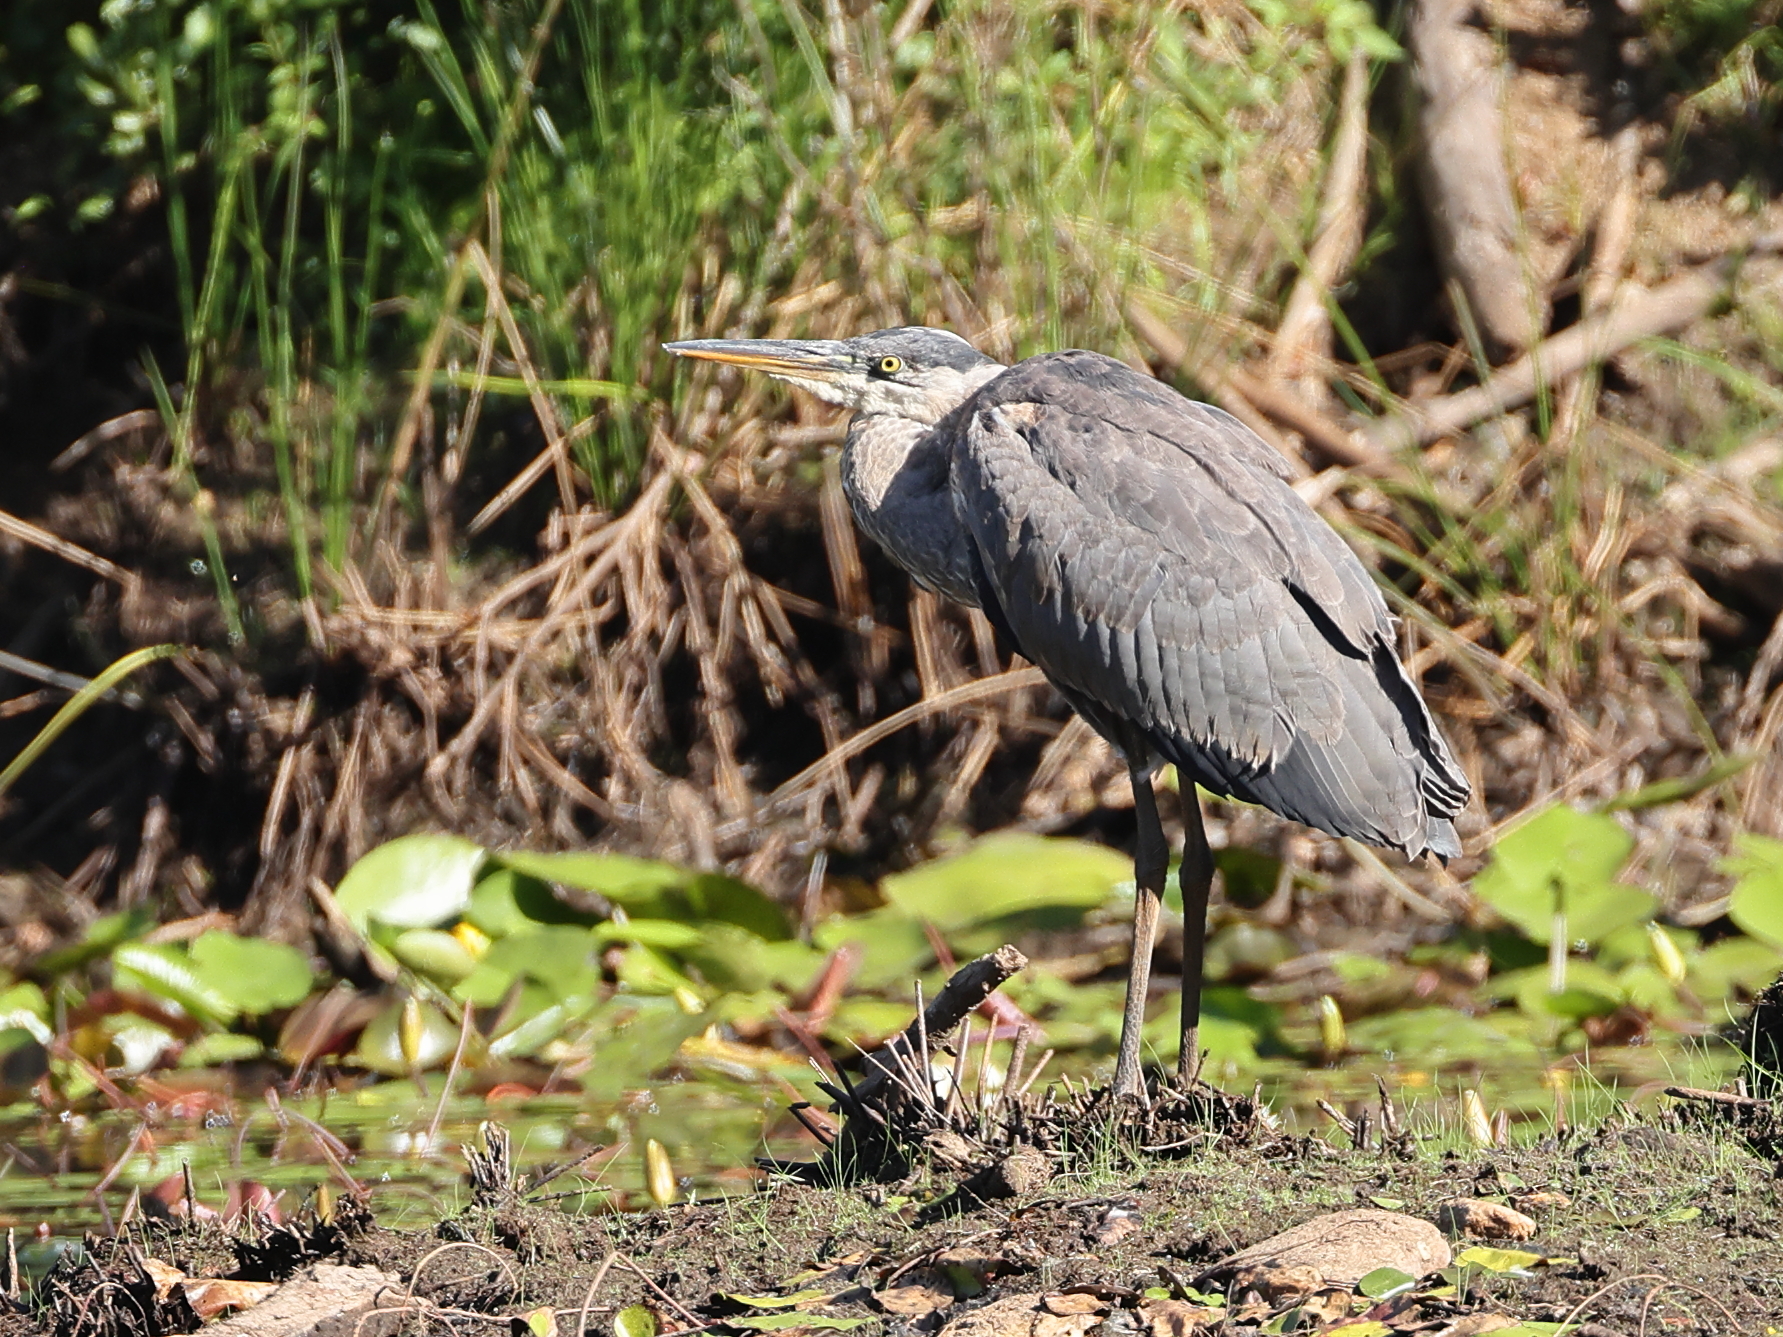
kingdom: Animalia
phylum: Chordata
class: Aves
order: Pelecaniformes
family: Ardeidae
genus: Ardea
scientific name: Ardea herodias
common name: Great blue heron
